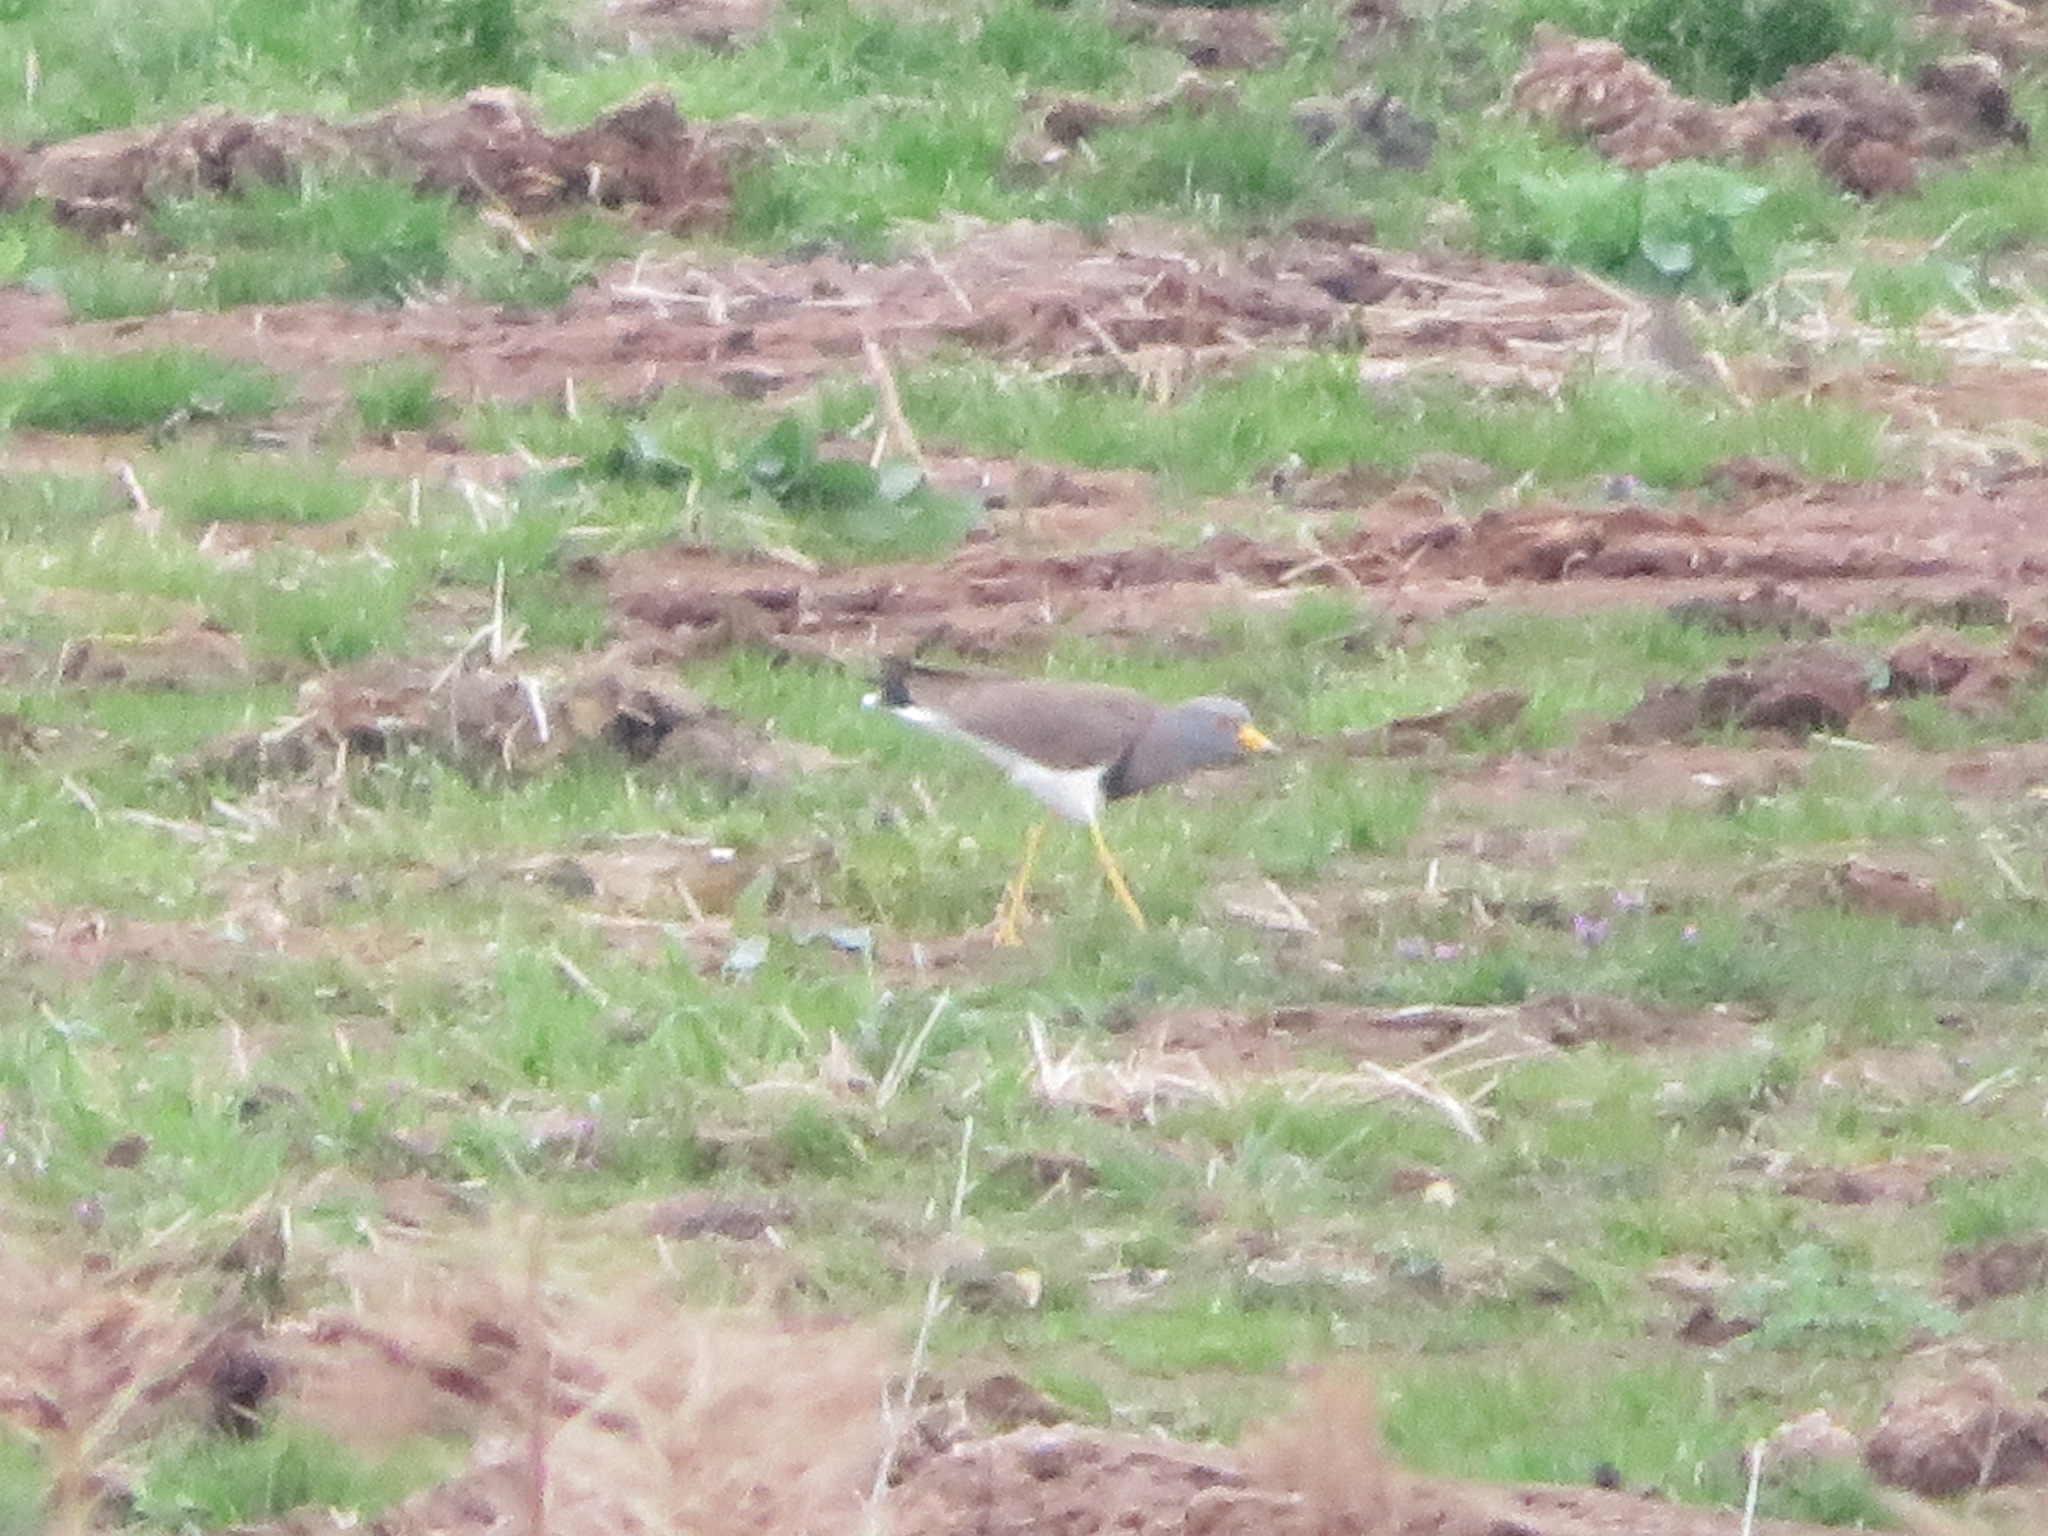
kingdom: Animalia
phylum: Chordata
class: Aves
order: Charadriiformes
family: Charadriidae
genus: Vanellus
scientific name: Vanellus cinereus
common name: Grey-headed lapwing
